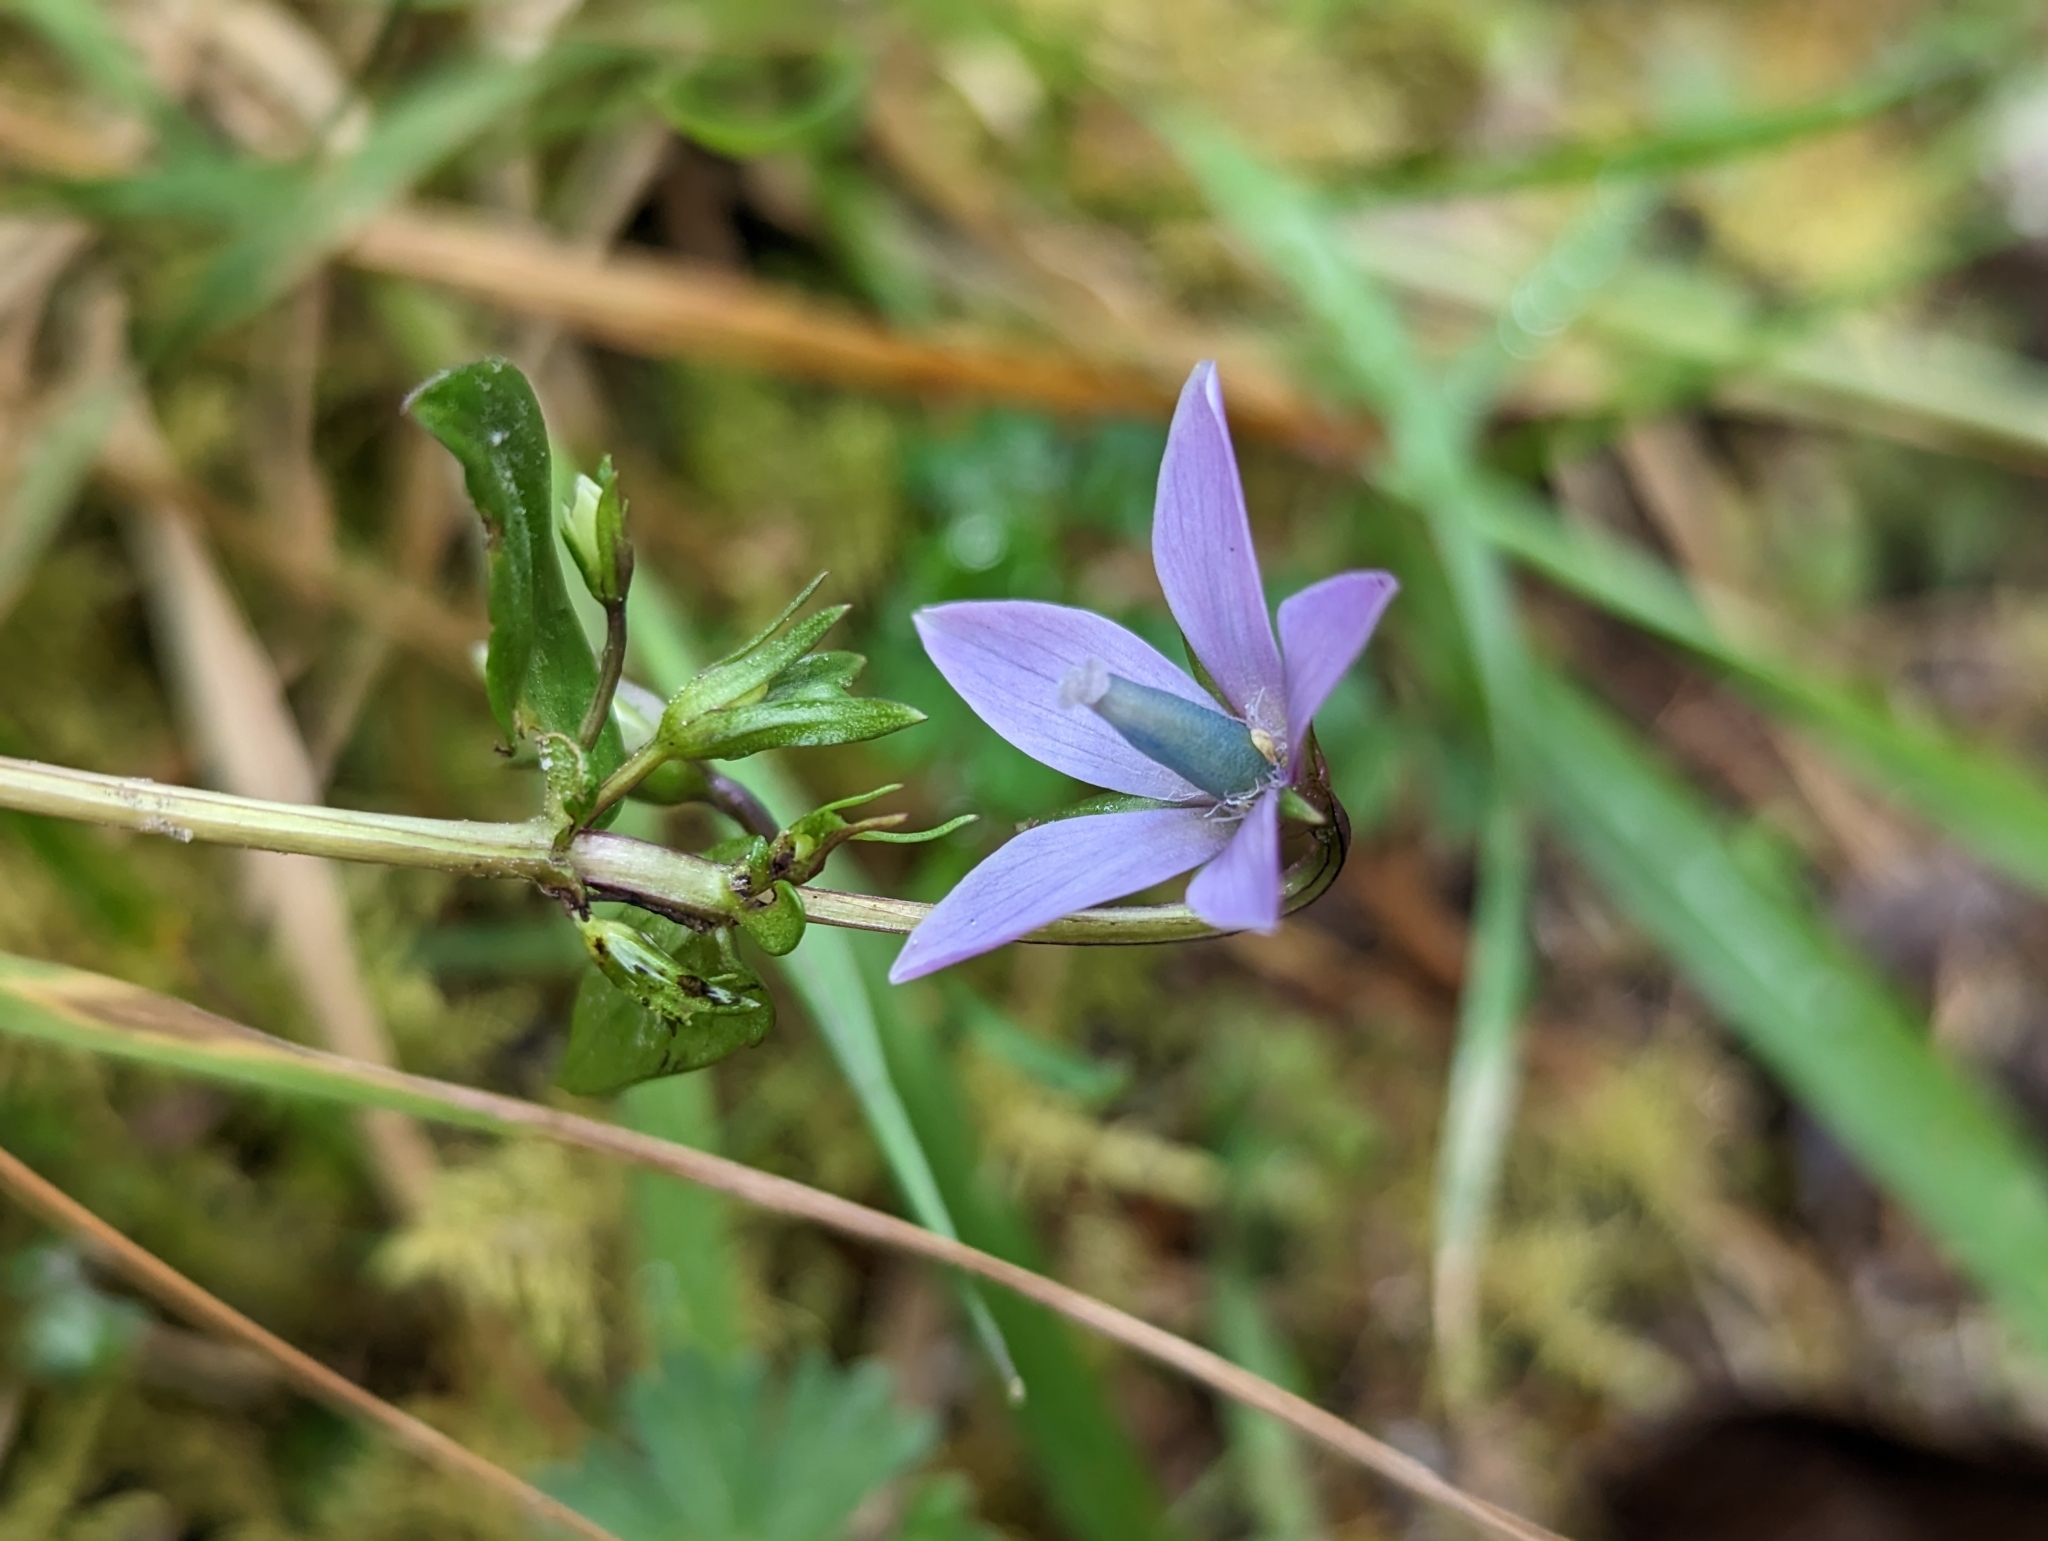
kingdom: Plantae
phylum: Tracheophyta
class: Magnoliopsida
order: Gentianales
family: Gentianaceae
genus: Gentianella
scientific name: Gentianella rapunculoides
